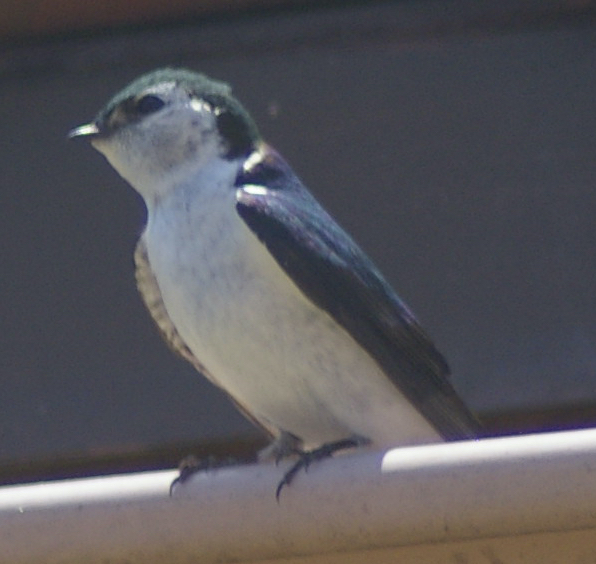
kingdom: Animalia
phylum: Chordata
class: Aves
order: Passeriformes
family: Hirundinidae
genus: Tachycineta
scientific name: Tachycineta thalassina
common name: Violet-green swallow
